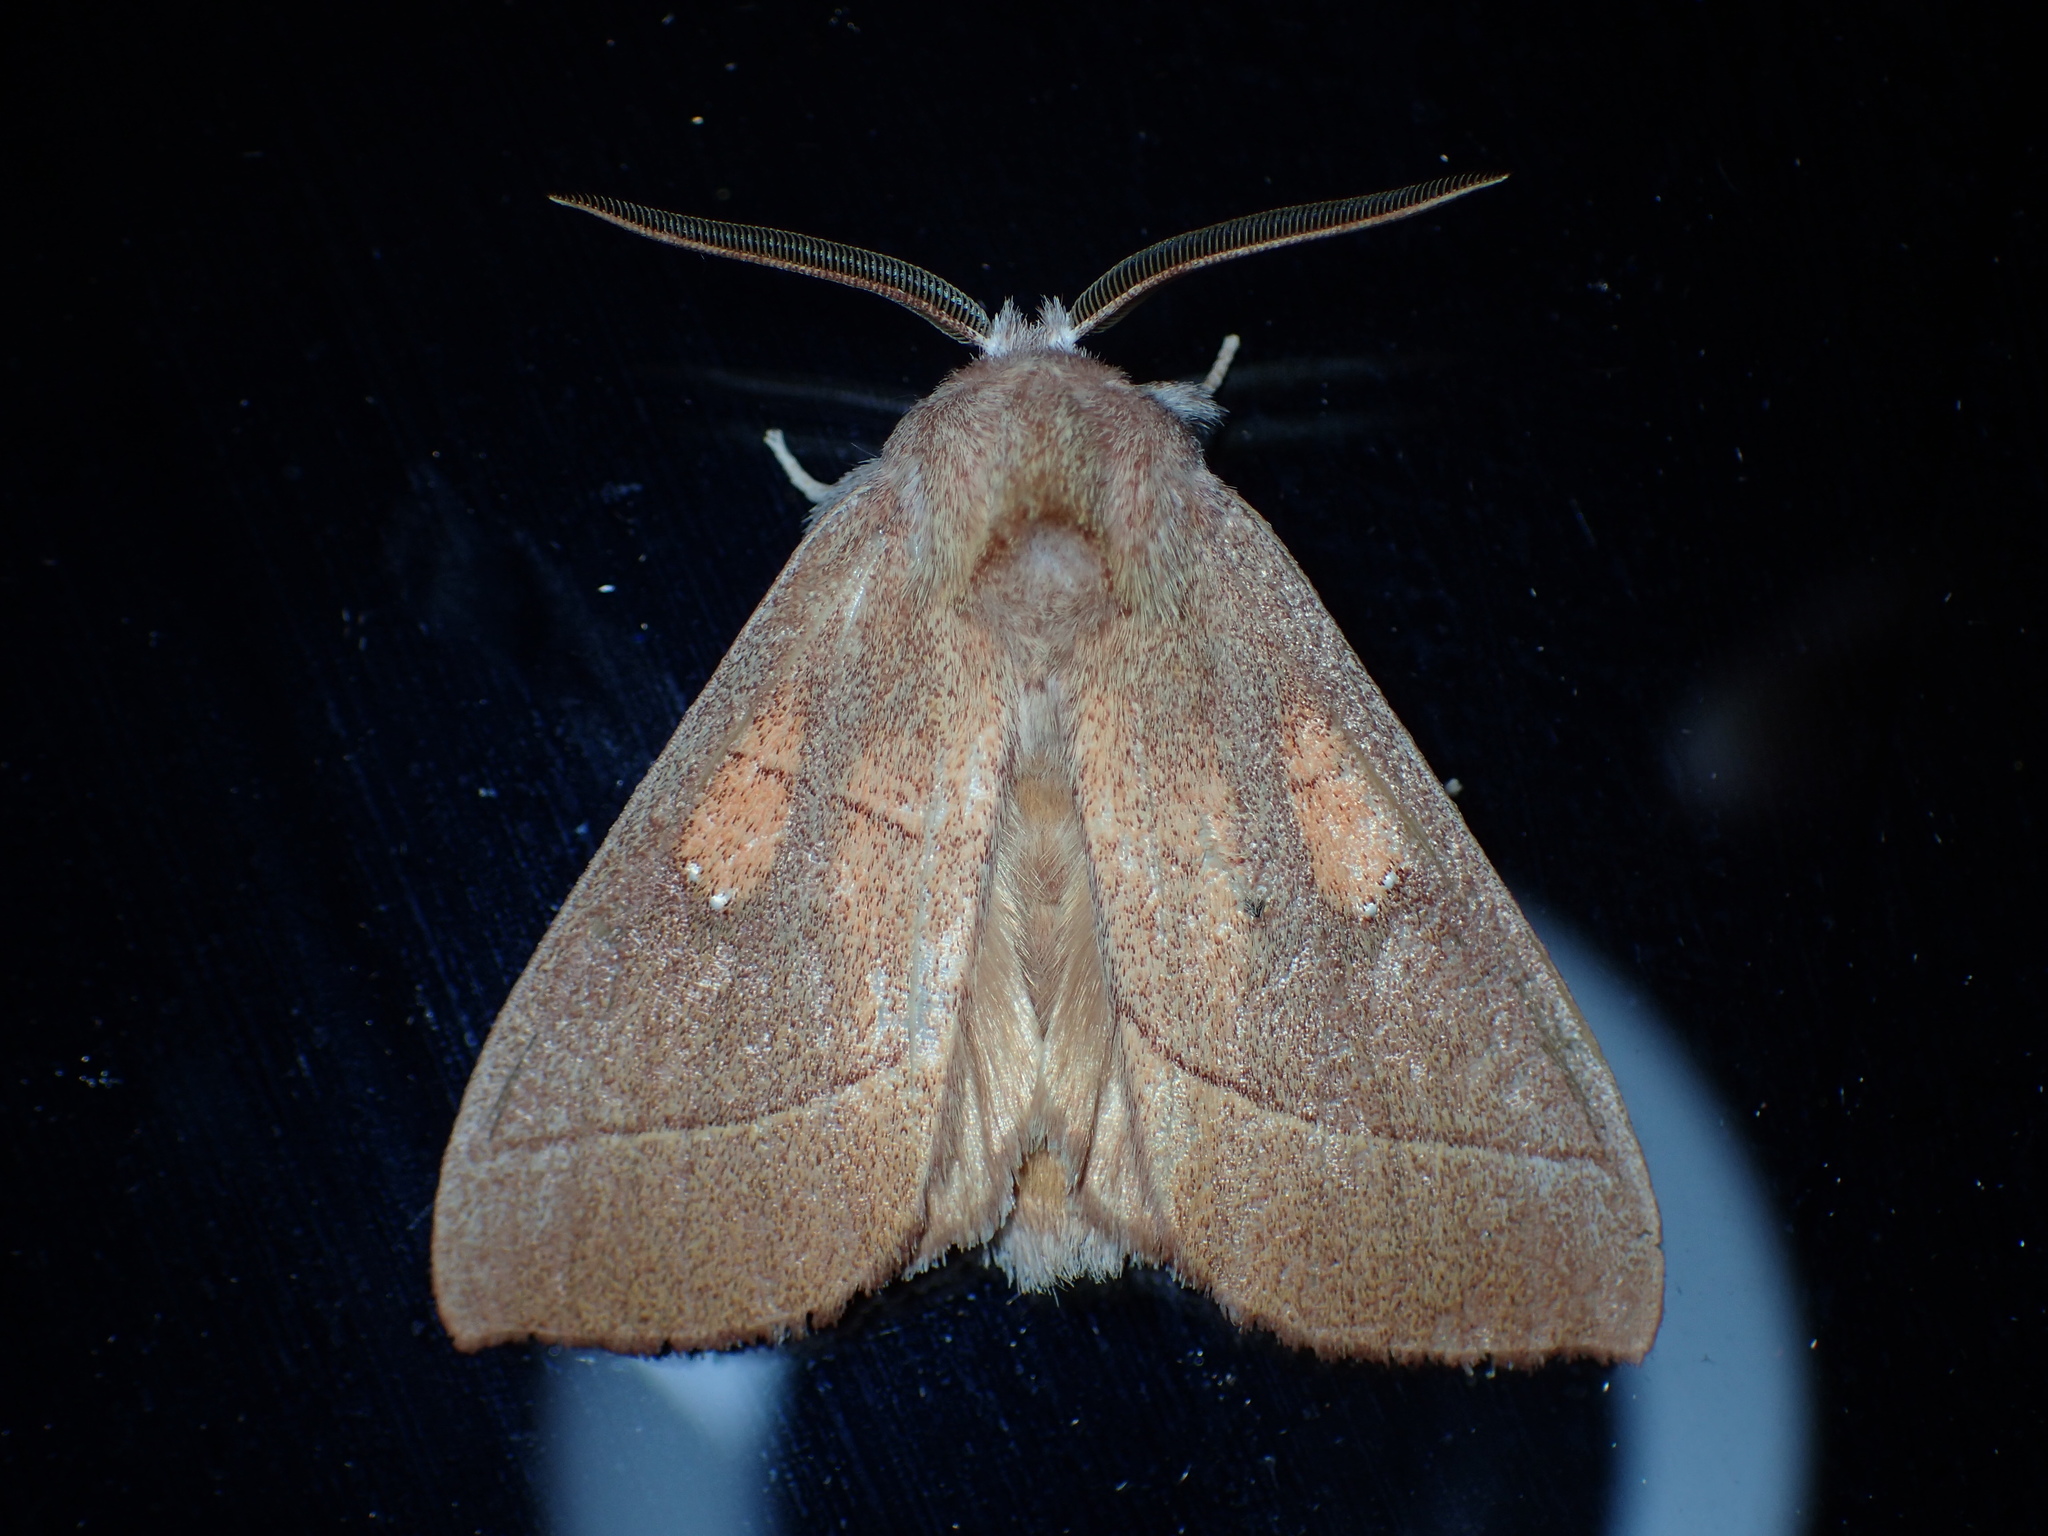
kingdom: Animalia
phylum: Arthropoda
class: Insecta
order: Lepidoptera
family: Notodontidae
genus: Nadata
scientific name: Nadata gibbosa
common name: White-dotted prominent
